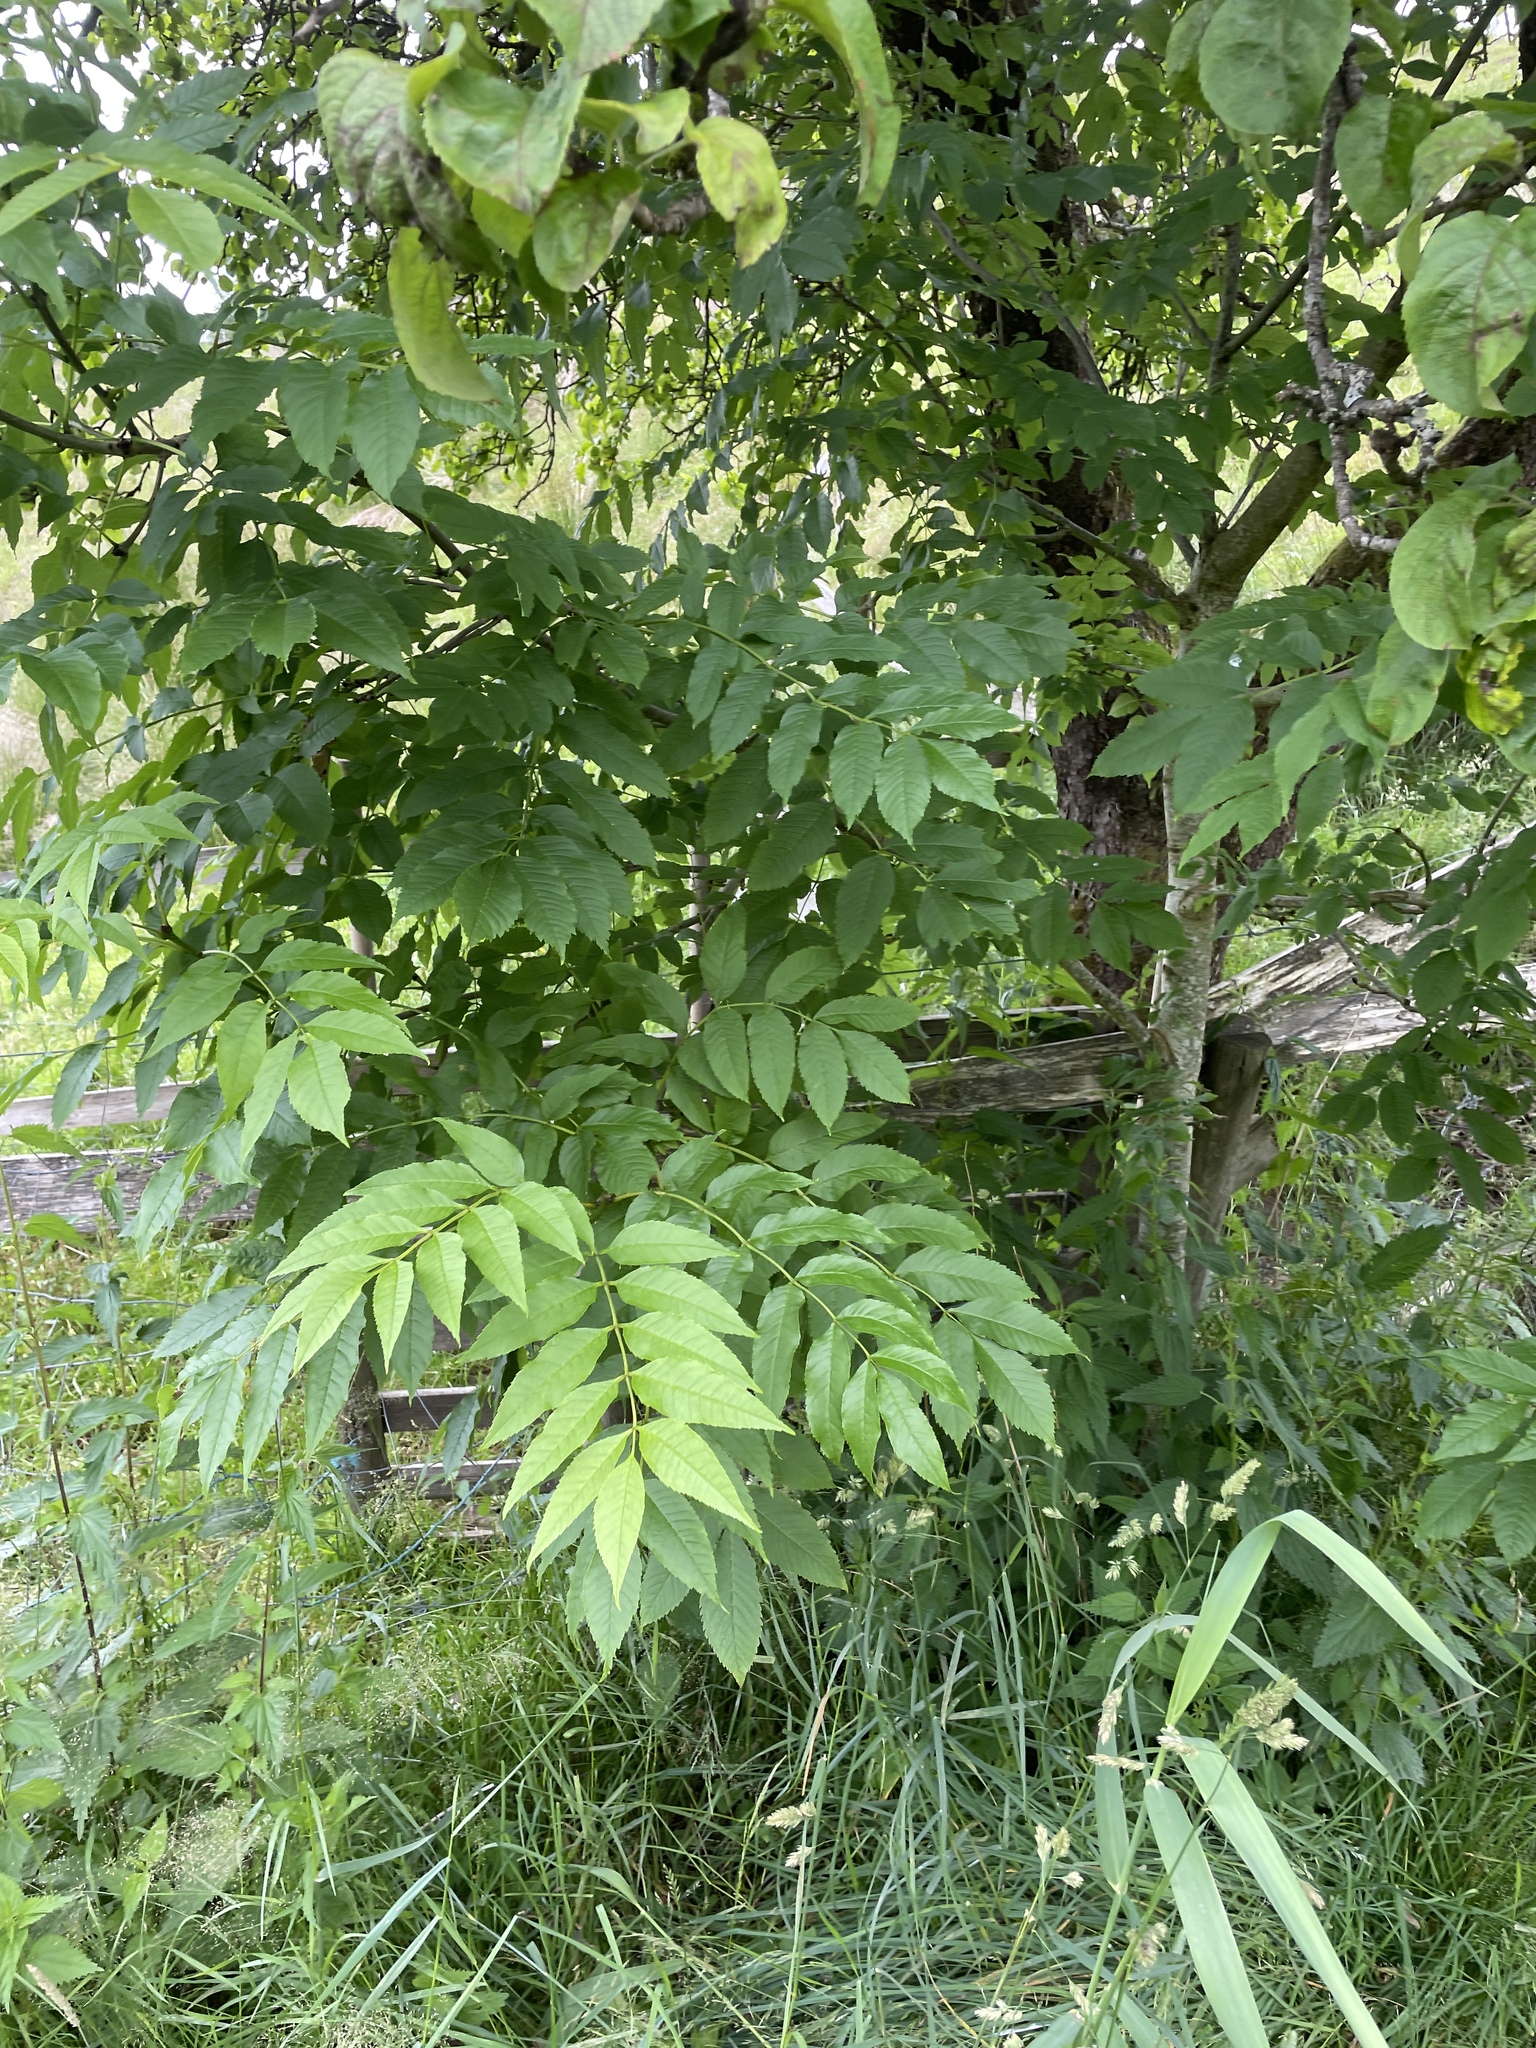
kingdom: Plantae
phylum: Tracheophyta
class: Magnoliopsida
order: Lamiales
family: Oleaceae
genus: Fraxinus
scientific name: Fraxinus excelsior
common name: European ash
